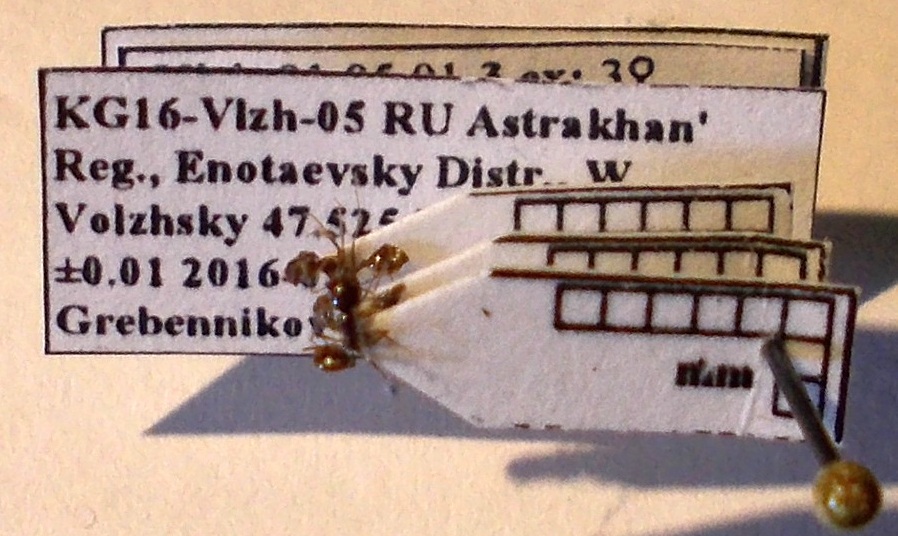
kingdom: Animalia
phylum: Arthropoda
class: Insecta
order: Hymenoptera
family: Formicidae
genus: Monomorium
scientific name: Monomorium barbatulum
